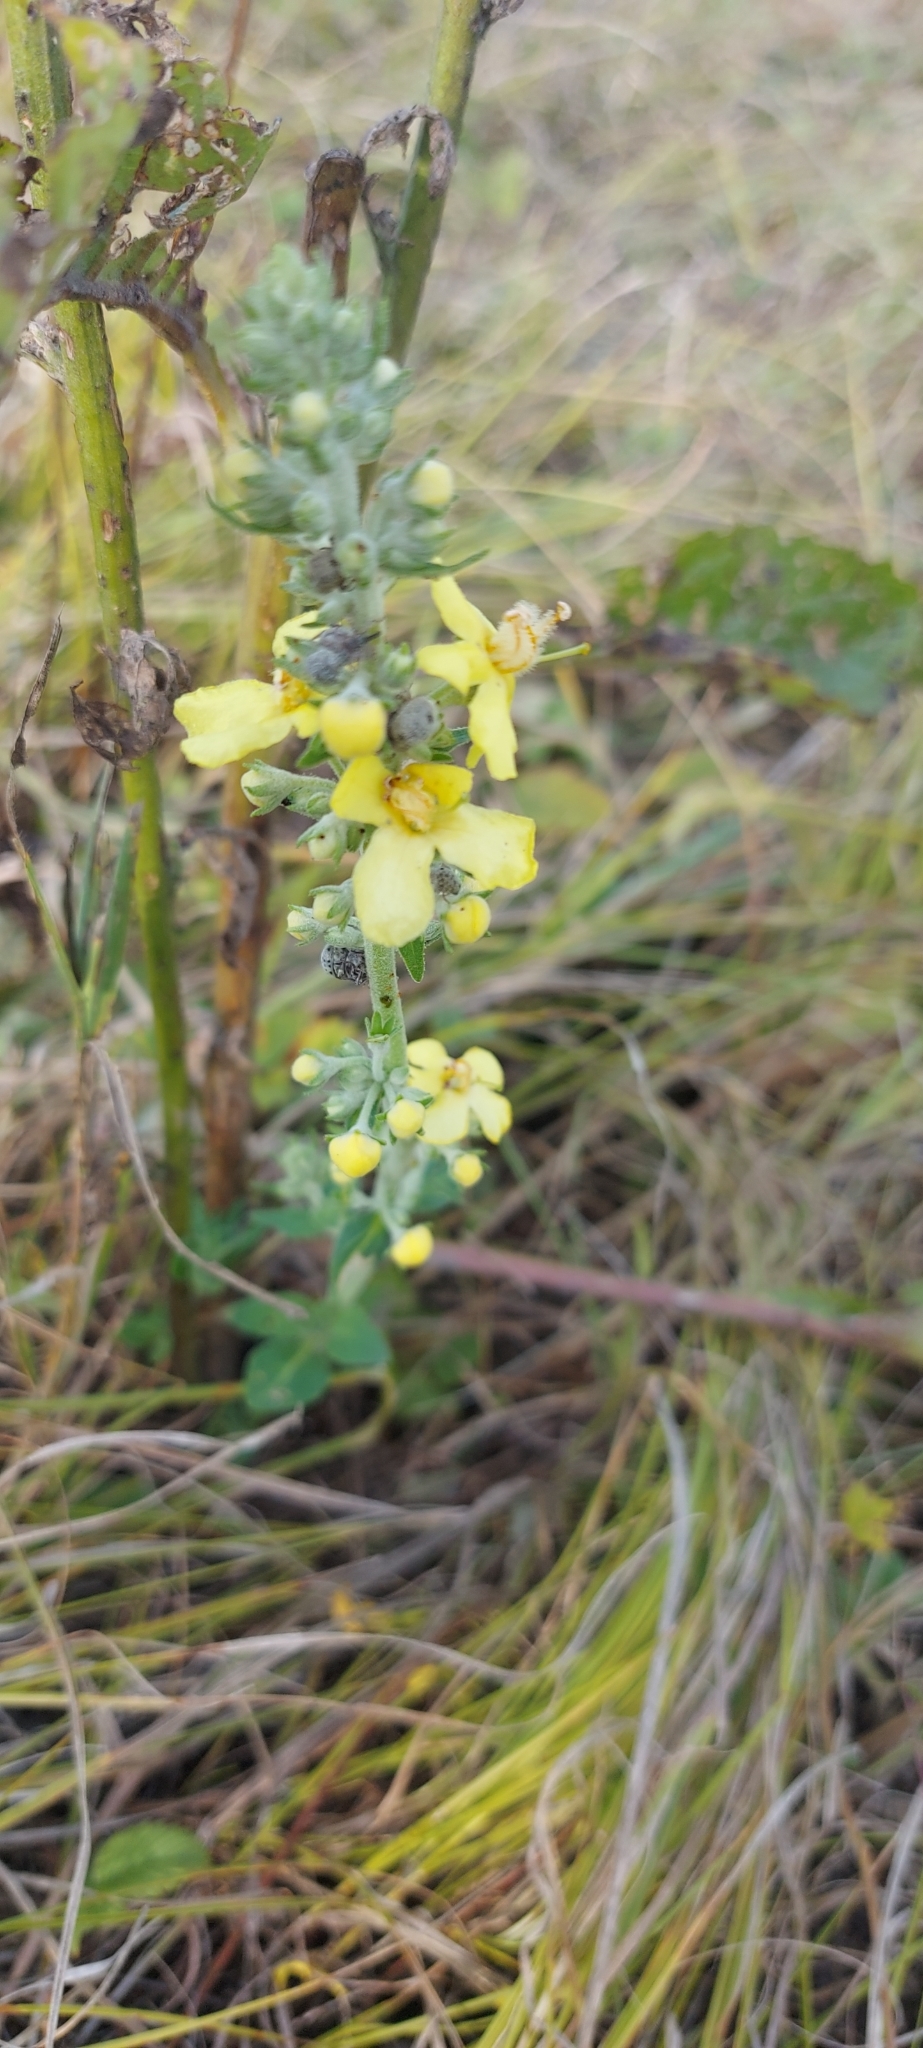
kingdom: Plantae
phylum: Tracheophyta
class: Magnoliopsida
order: Lamiales
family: Scrophulariaceae
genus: Verbascum
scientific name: Verbascum lychnitis
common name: White mullein
